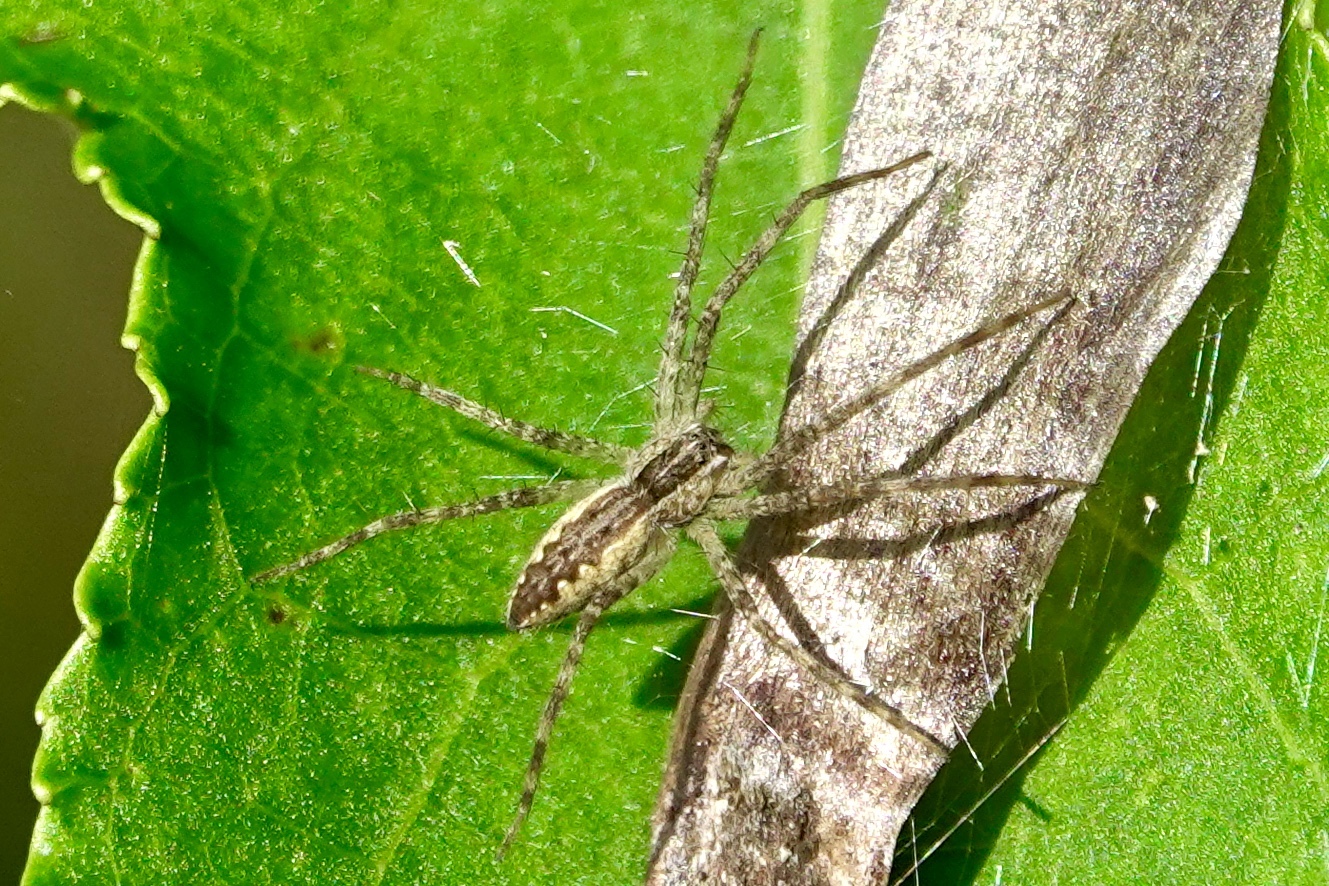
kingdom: Animalia
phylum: Arthropoda
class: Arachnida
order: Araneae
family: Pisauridae
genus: Pisaurina
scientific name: Pisaurina mira
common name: American nursery web spider
